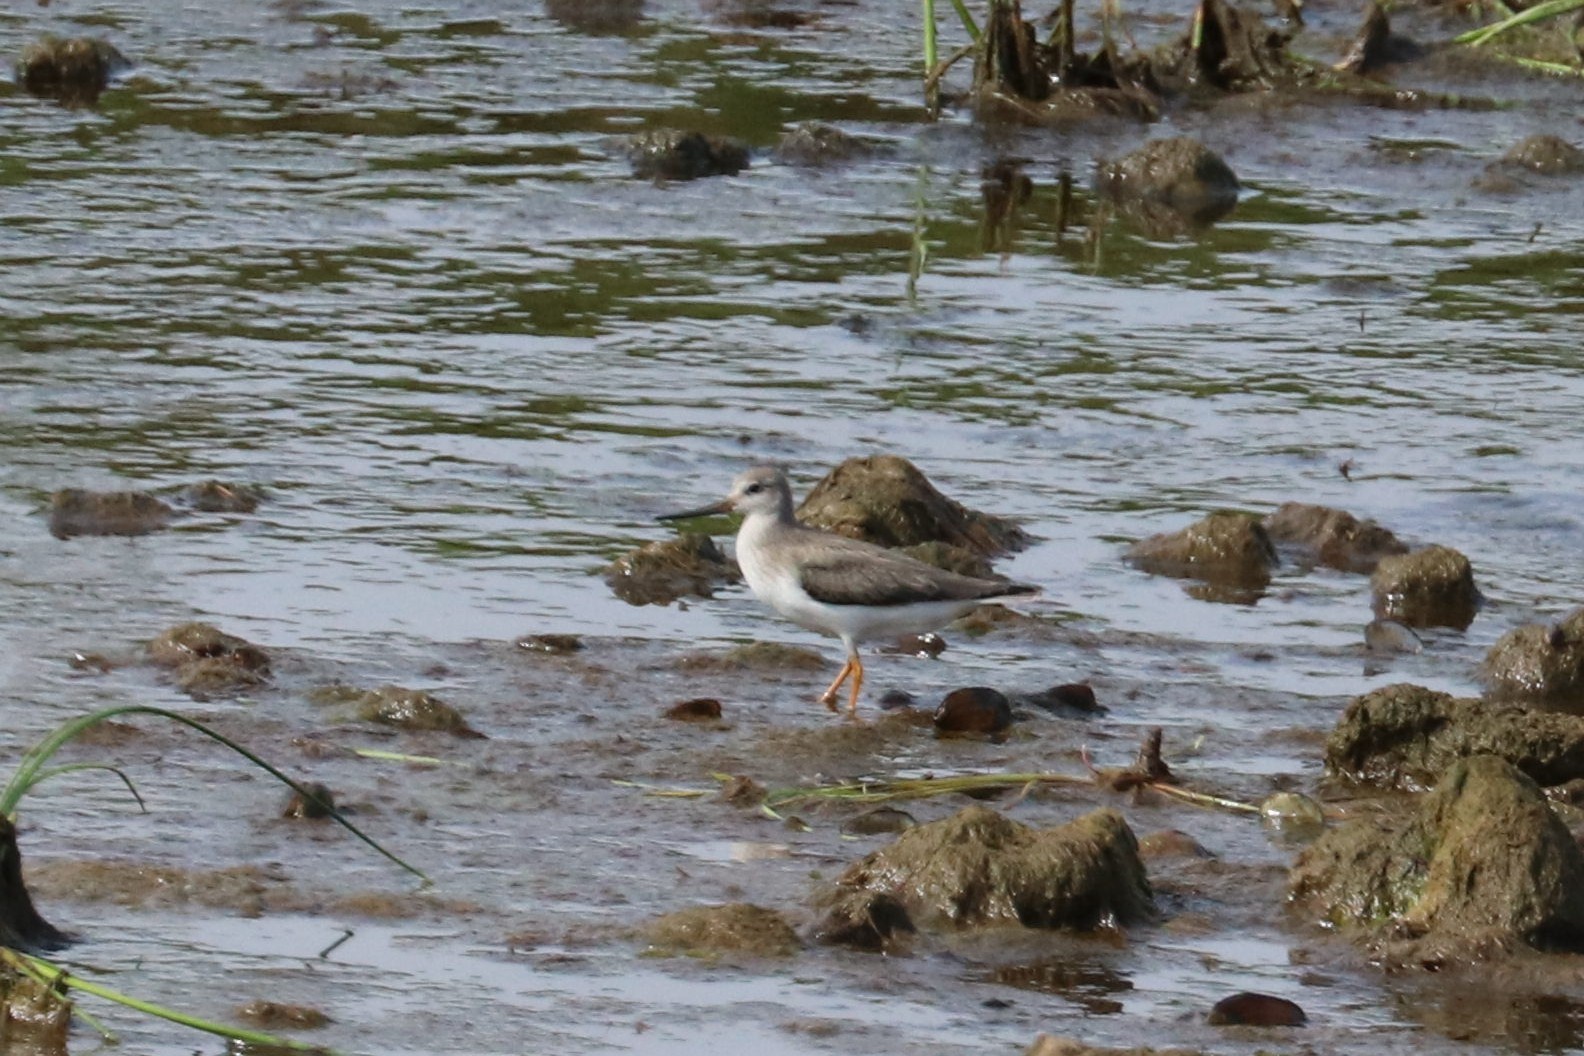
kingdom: Animalia
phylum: Chordata
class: Aves
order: Charadriiformes
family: Scolopacidae
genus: Xenus
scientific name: Xenus cinereus
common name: Terek sandpiper
